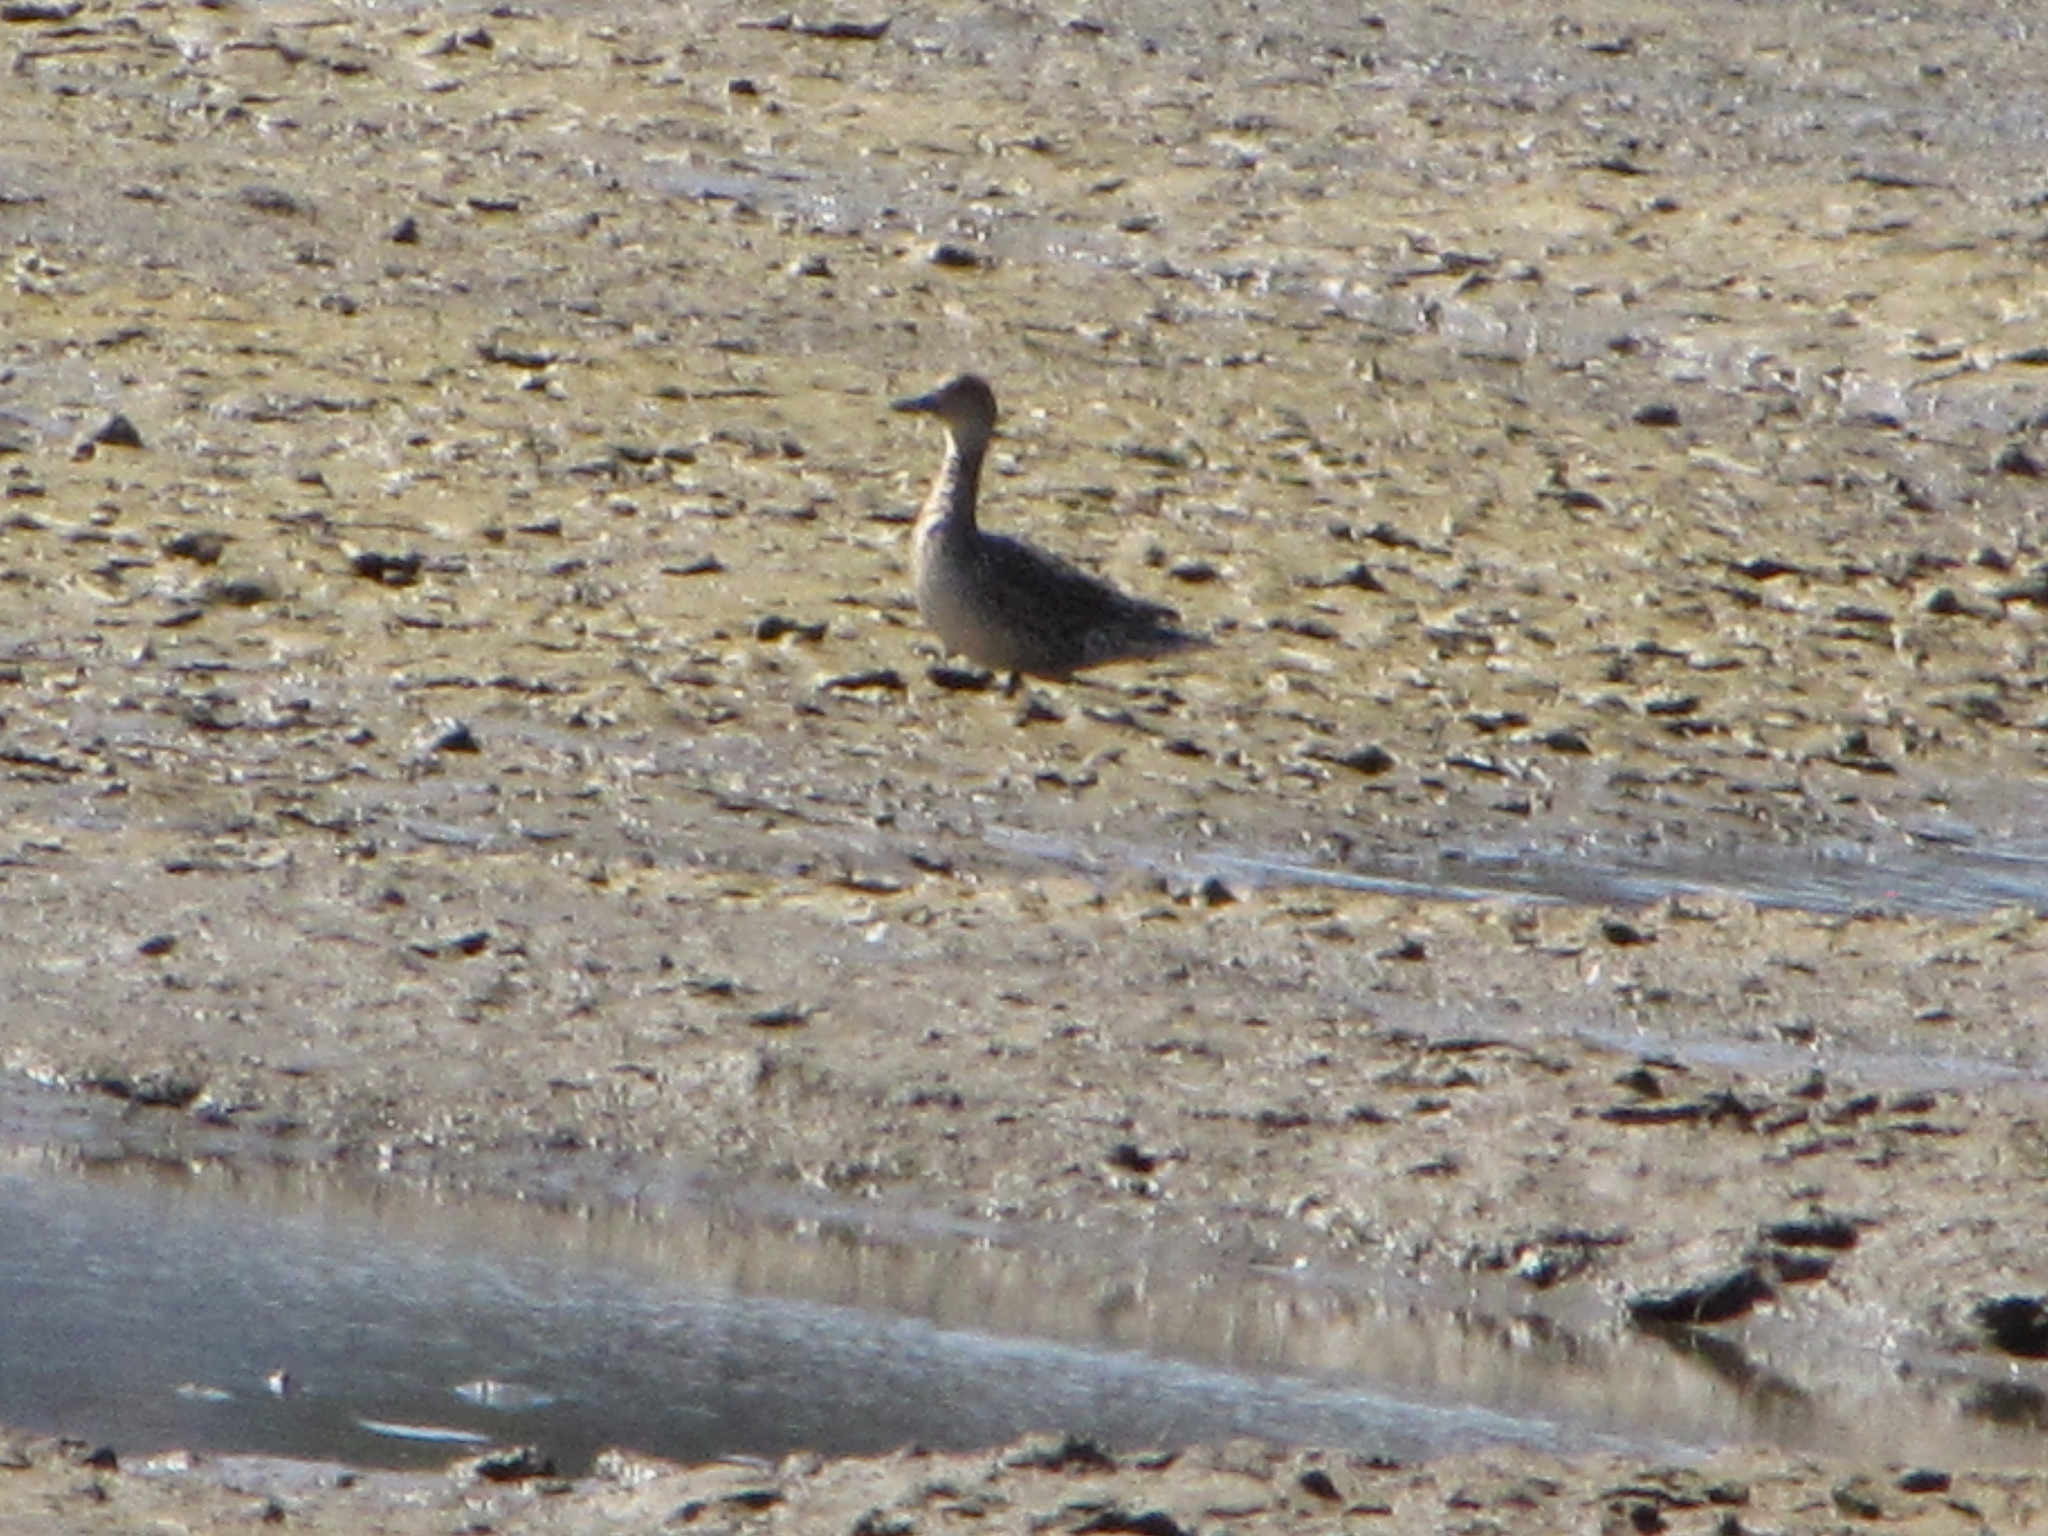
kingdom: Animalia
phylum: Chordata
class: Aves
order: Anseriformes
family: Anatidae
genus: Anas
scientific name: Anas acuta
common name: Northern pintail
